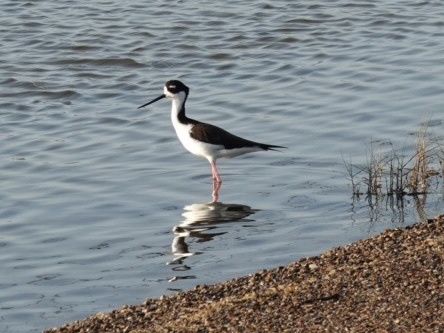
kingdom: Animalia
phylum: Chordata
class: Aves
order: Charadriiformes
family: Recurvirostridae
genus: Himantopus
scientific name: Himantopus mexicanus
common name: Black-necked stilt
